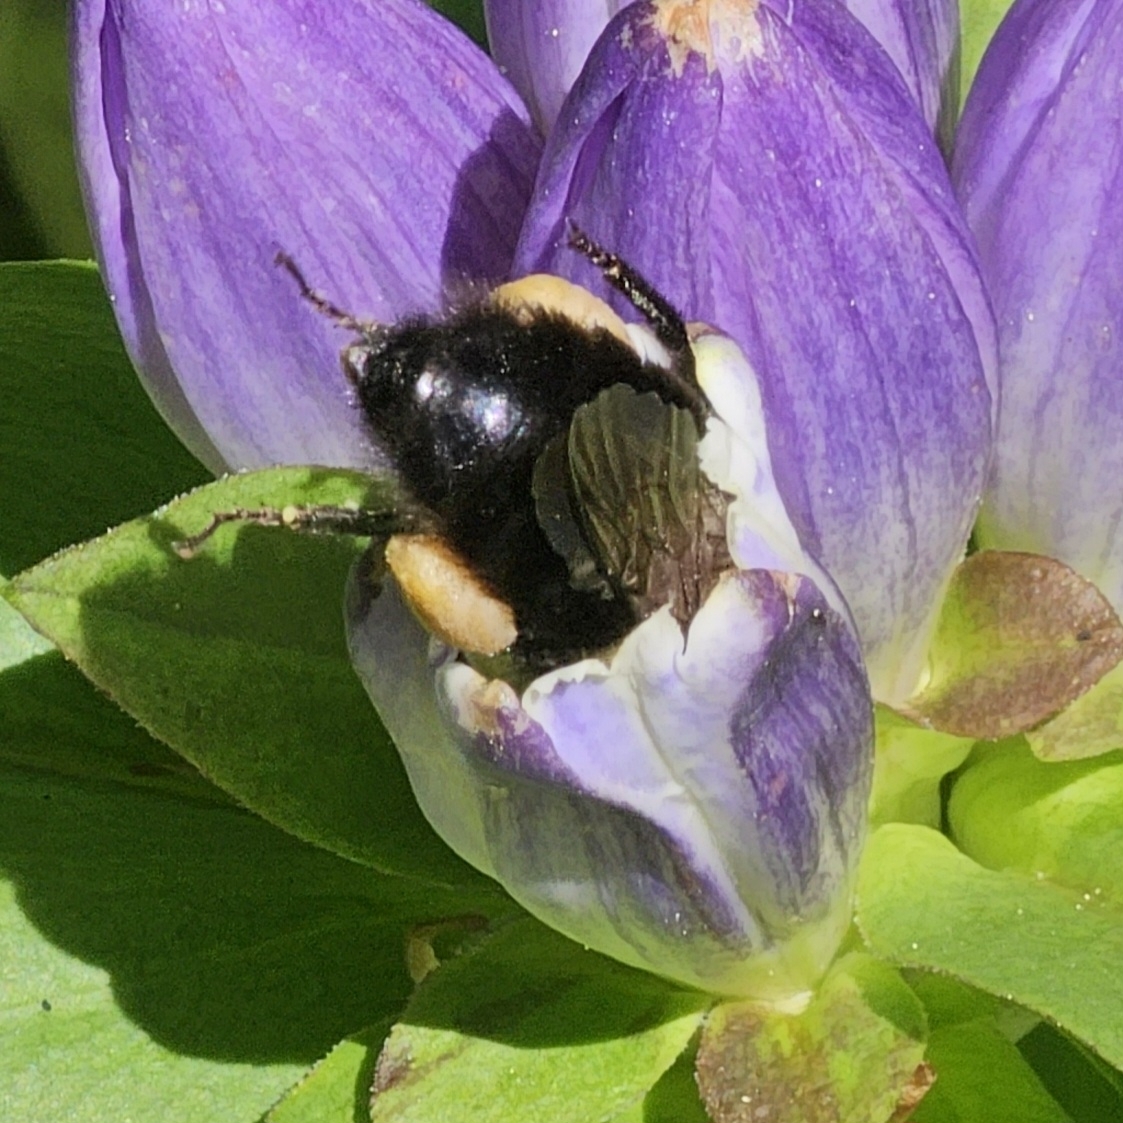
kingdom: Animalia
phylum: Arthropoda
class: Insecta
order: Hymenoptera
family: Apidae
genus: Bombus
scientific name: Bombus impatiens
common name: Common eastern bumble bee
